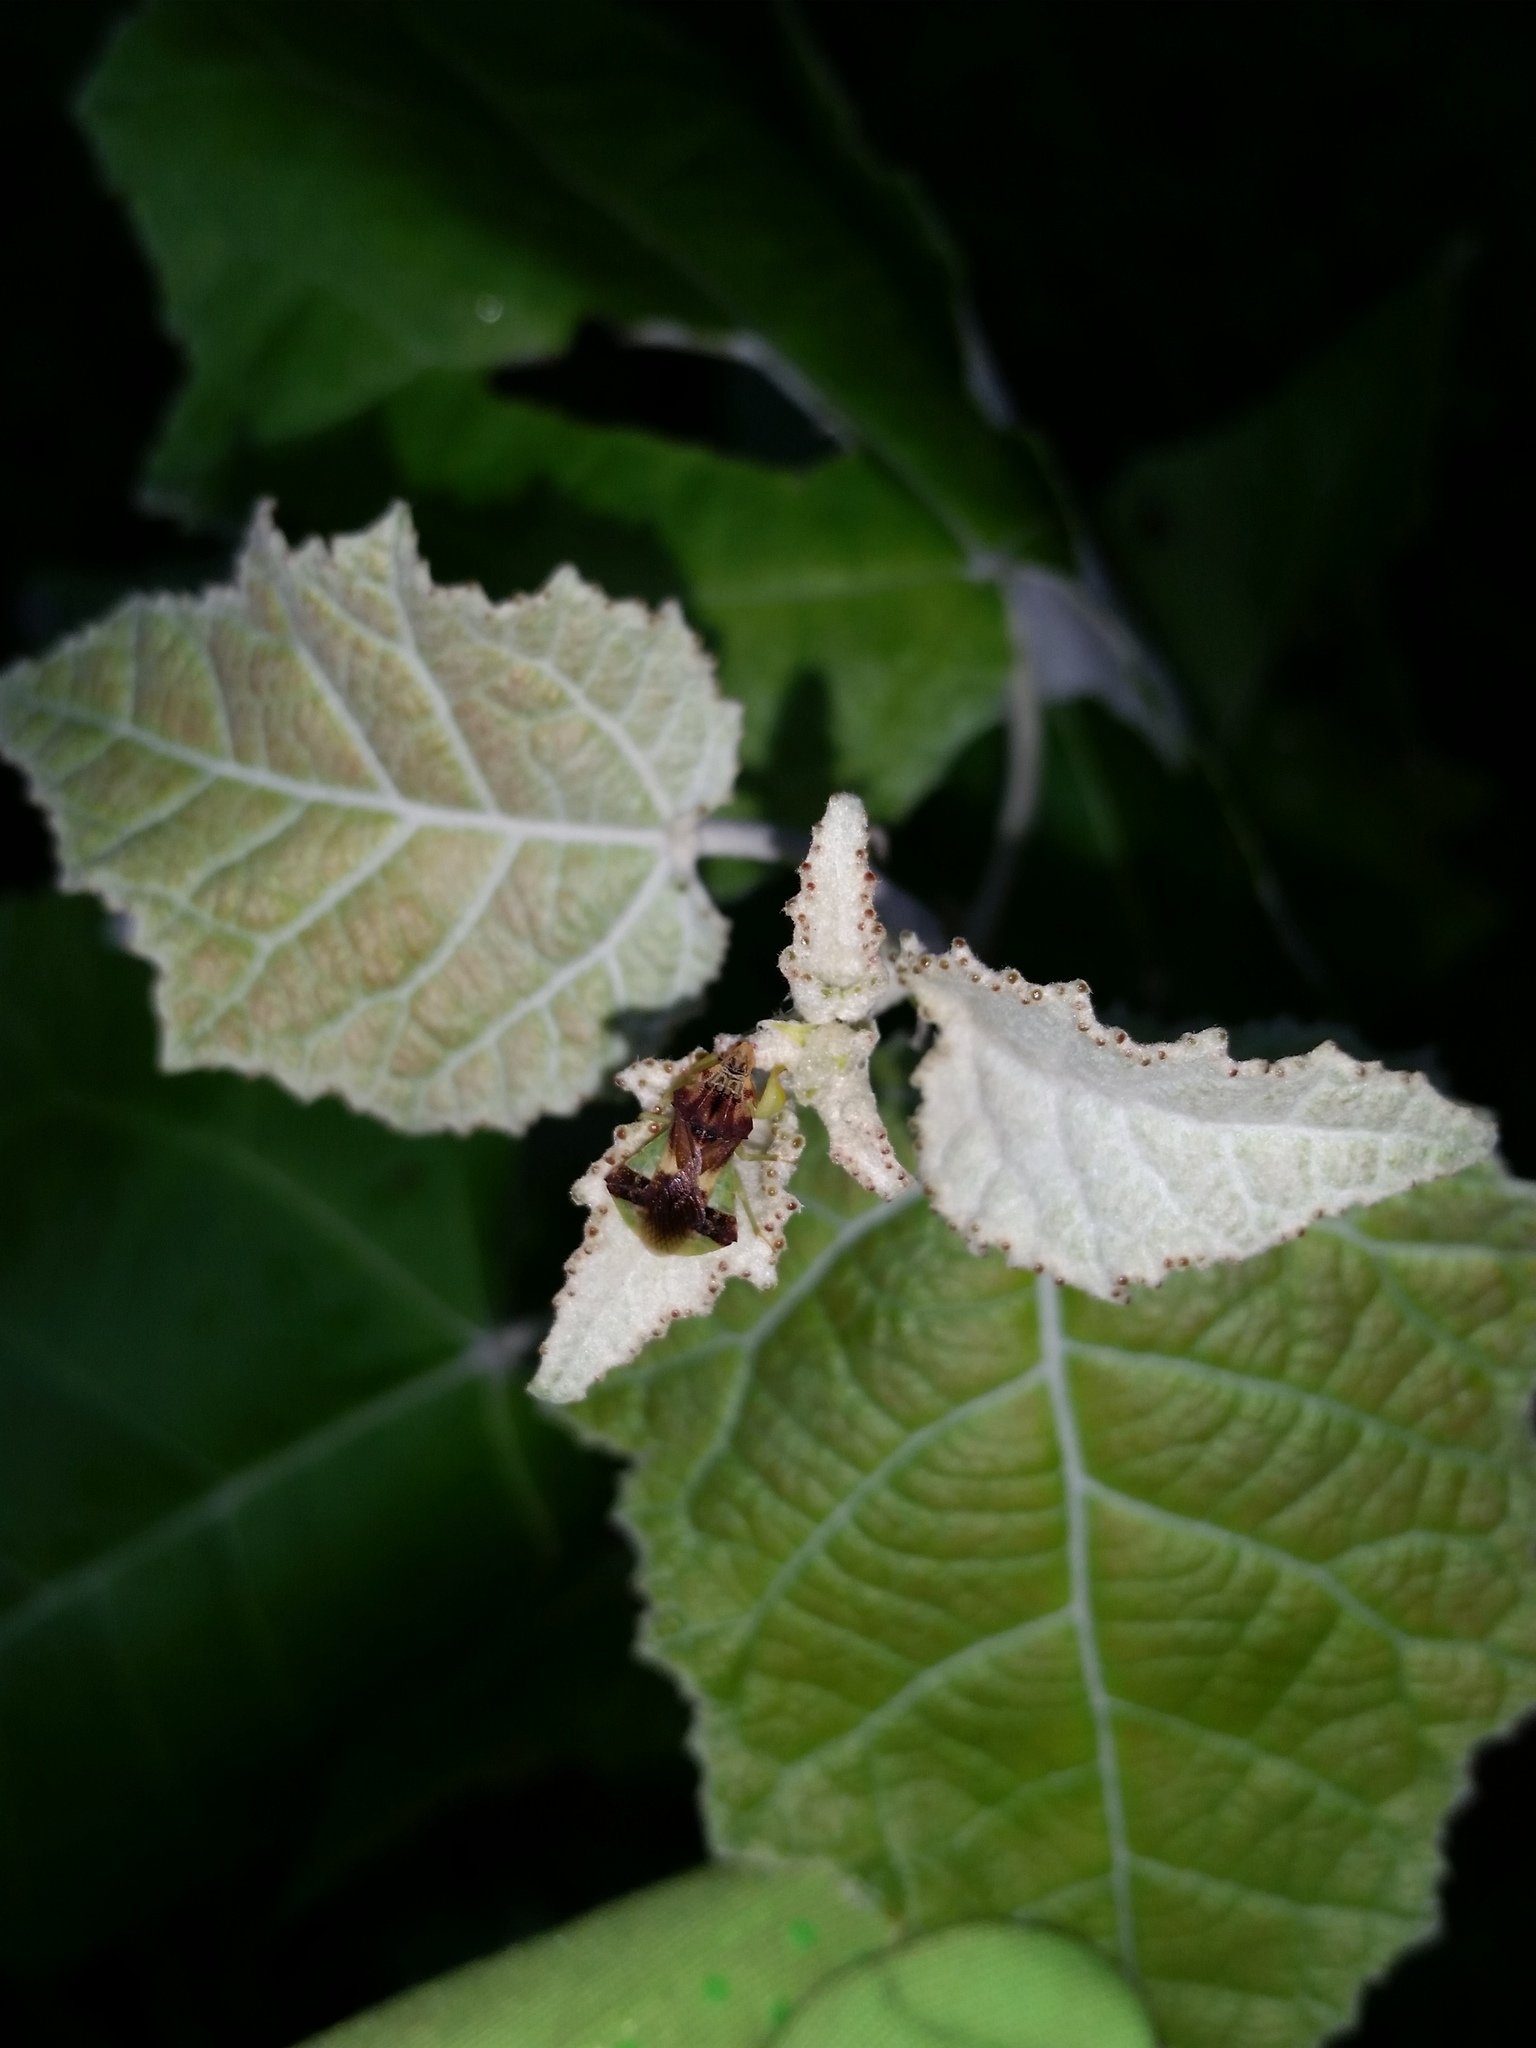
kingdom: Plantae
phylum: Tracheophyta
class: Magnoliopsida
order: Malpighiales
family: Salicaceae
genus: Populus
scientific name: Populus alba
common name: White poplar
